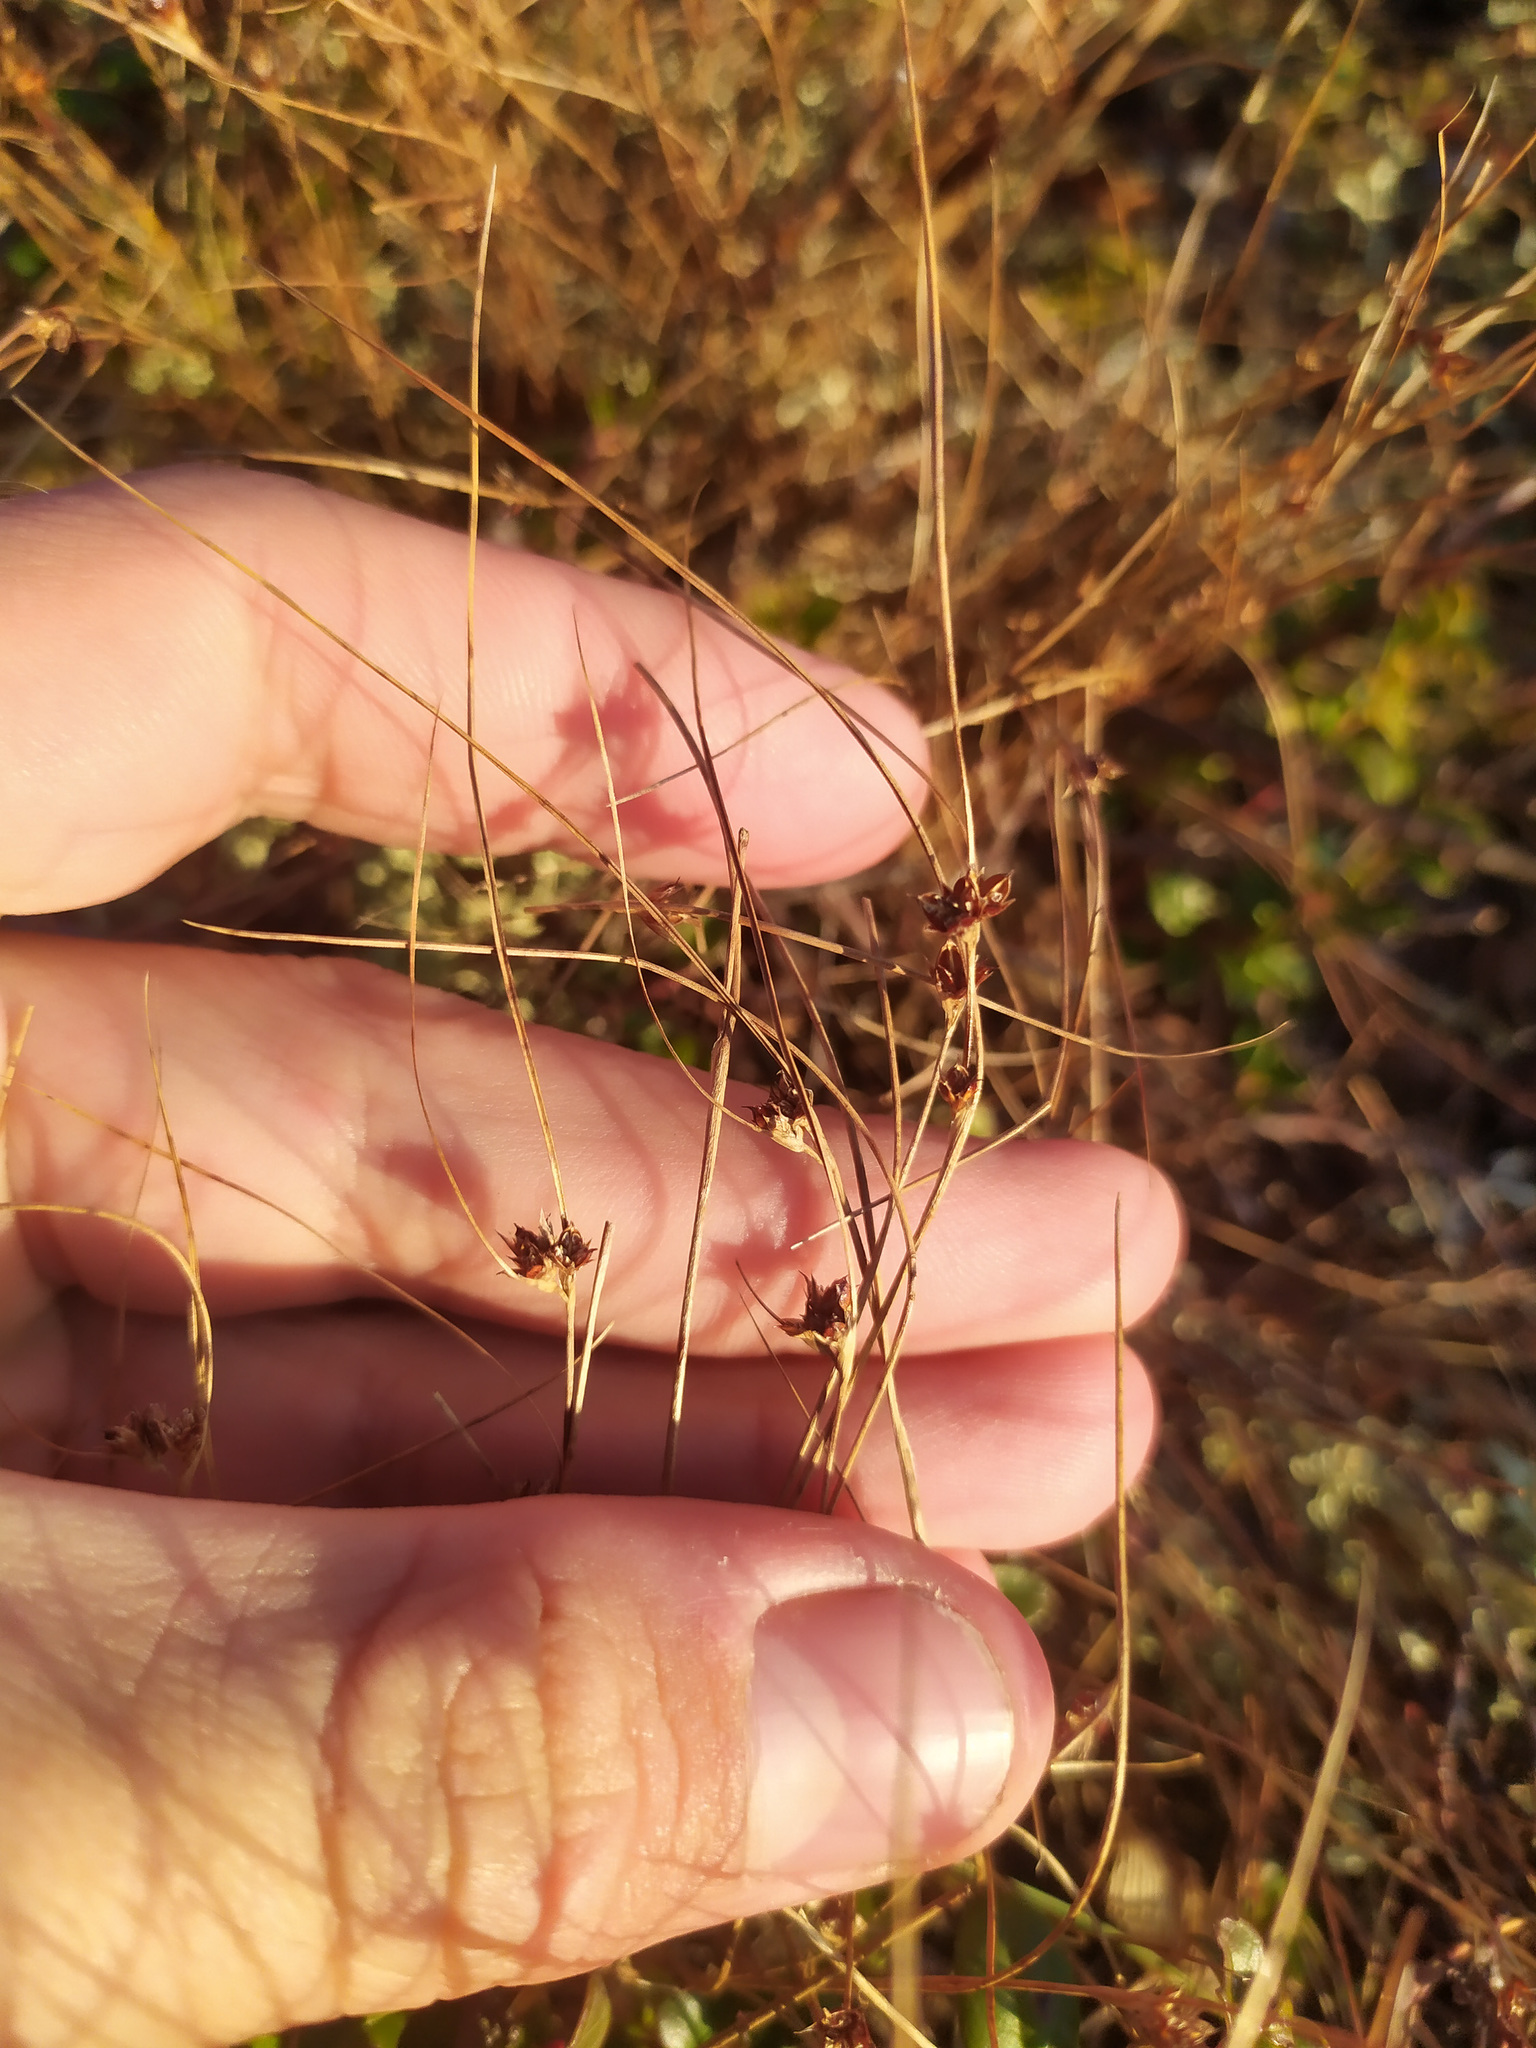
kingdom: Plantae
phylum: Tracheophyta
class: Liliopsida
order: Poales
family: Juncaceae
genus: Oreojuncus
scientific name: Oreojuncus trifidus
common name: Highland rush
